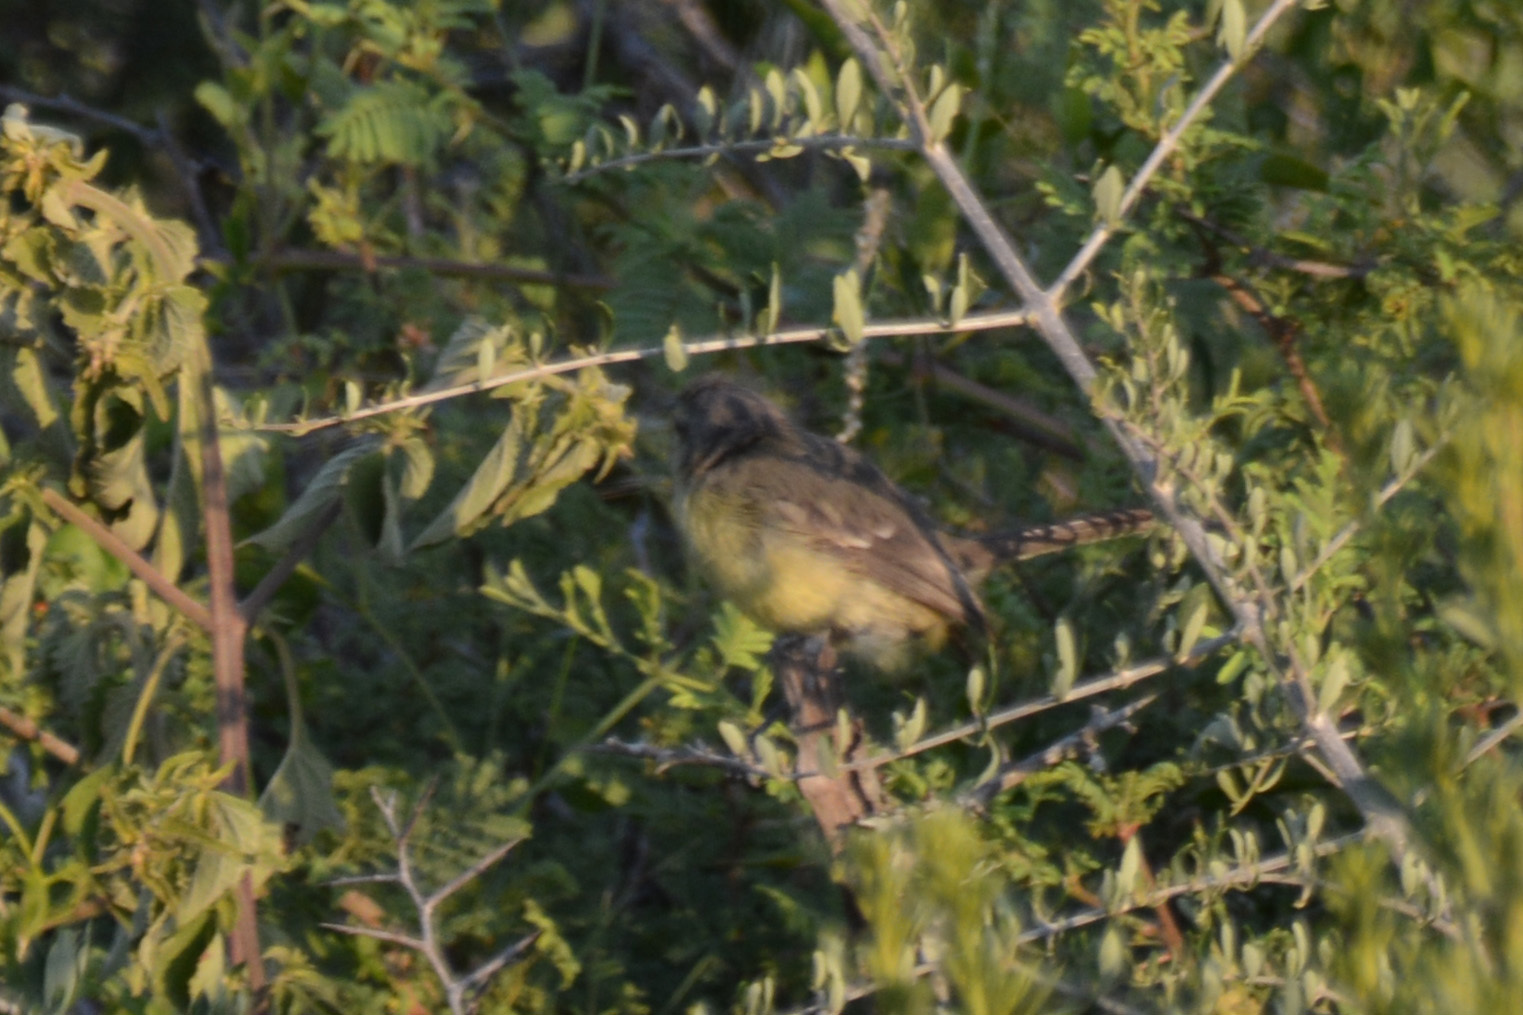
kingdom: Animalia
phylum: Chordata
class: Aves
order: Passeriformes
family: Tyrannidae
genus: Stigmatura
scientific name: Stigmatura budytoides
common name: Greater wagtail-tyrant
